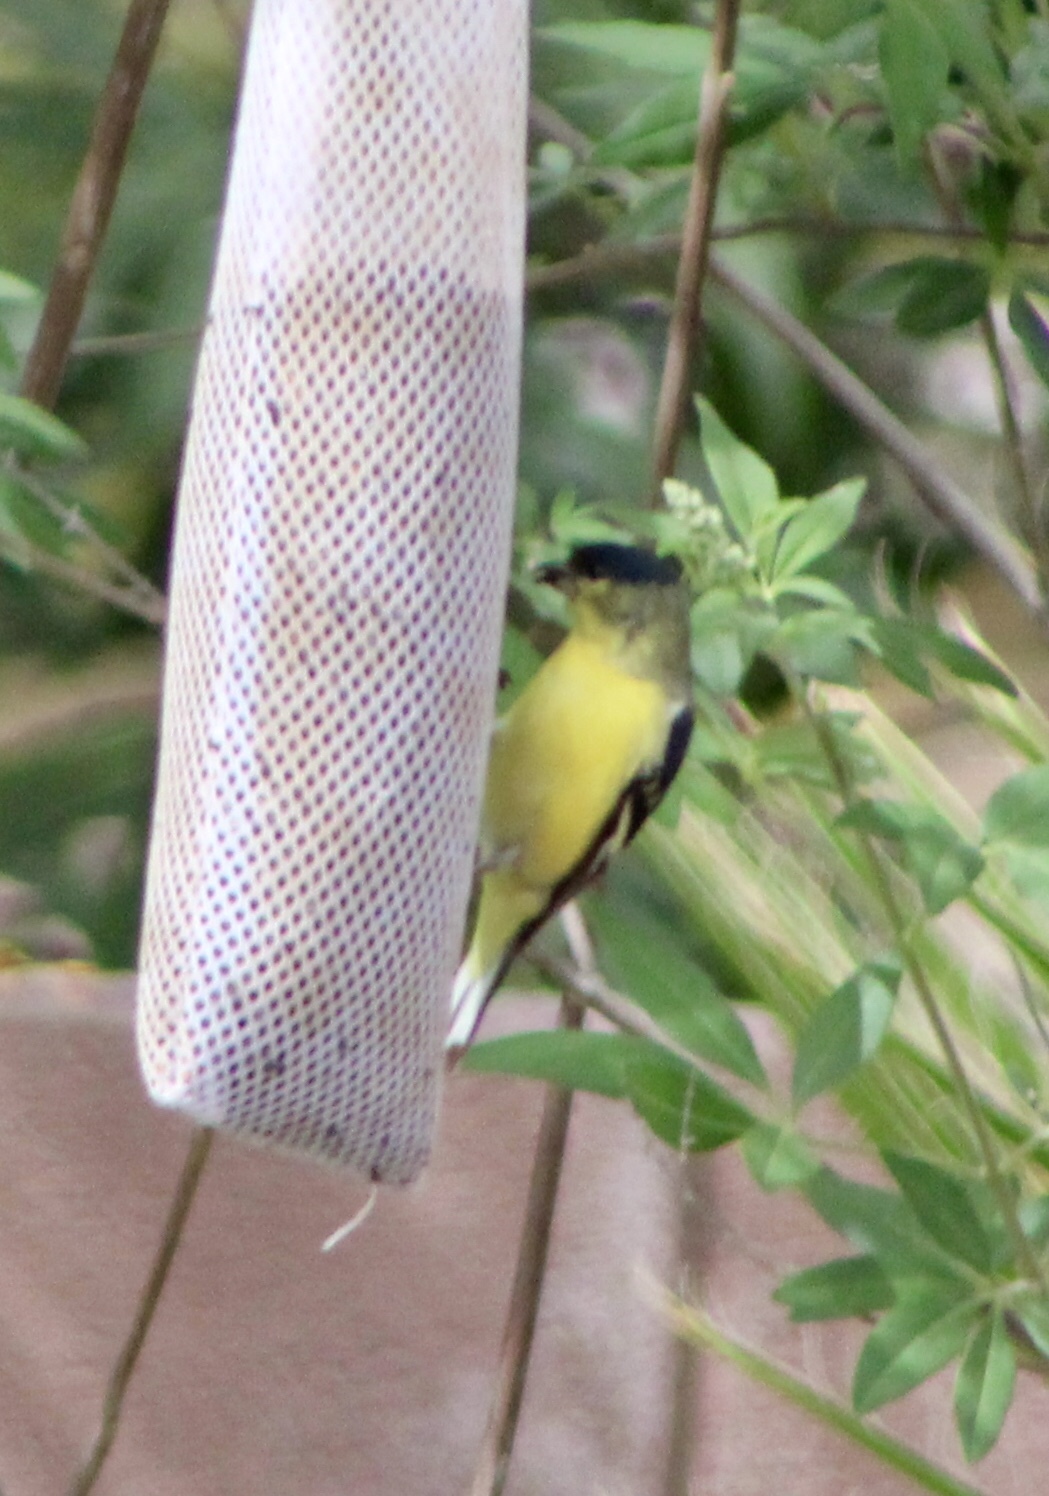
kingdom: Animalia
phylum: Chordata
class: Aves
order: Passeriformes
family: Fringillidae
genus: Spinus
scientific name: Spinus psaltria
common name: Lesser goldfinch
